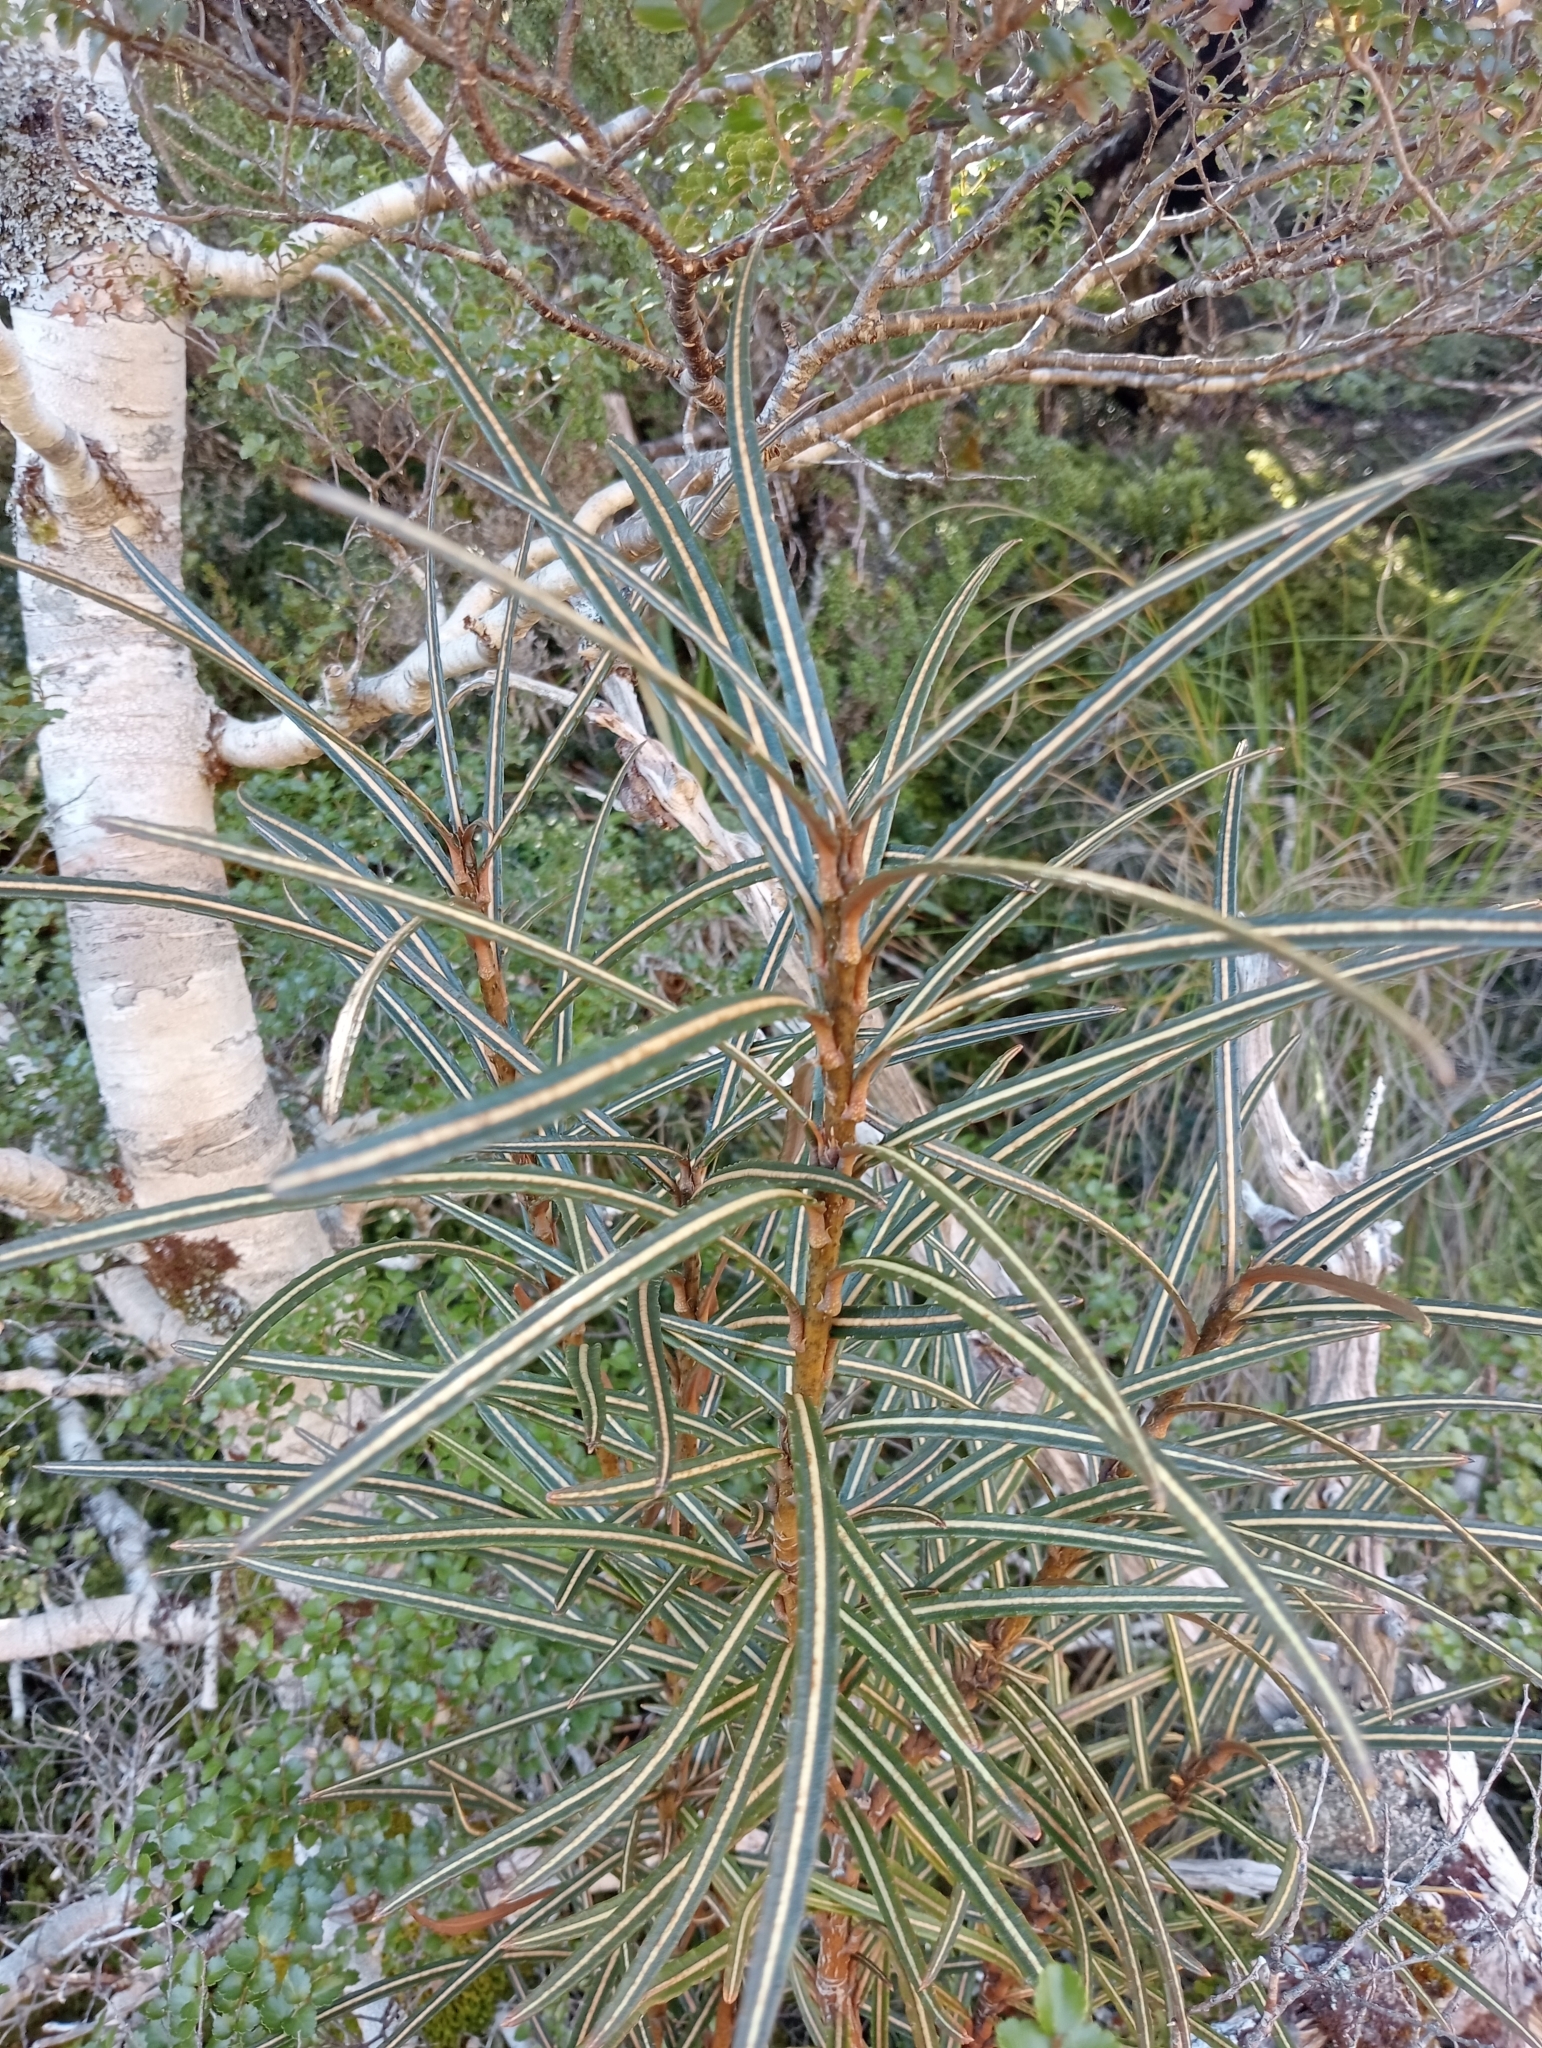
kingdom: Plantae
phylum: Tracheophyta
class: Magnoliopsida
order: Apiales
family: Araliaceae
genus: Pseudopanax
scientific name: Pseudopanax linearis
